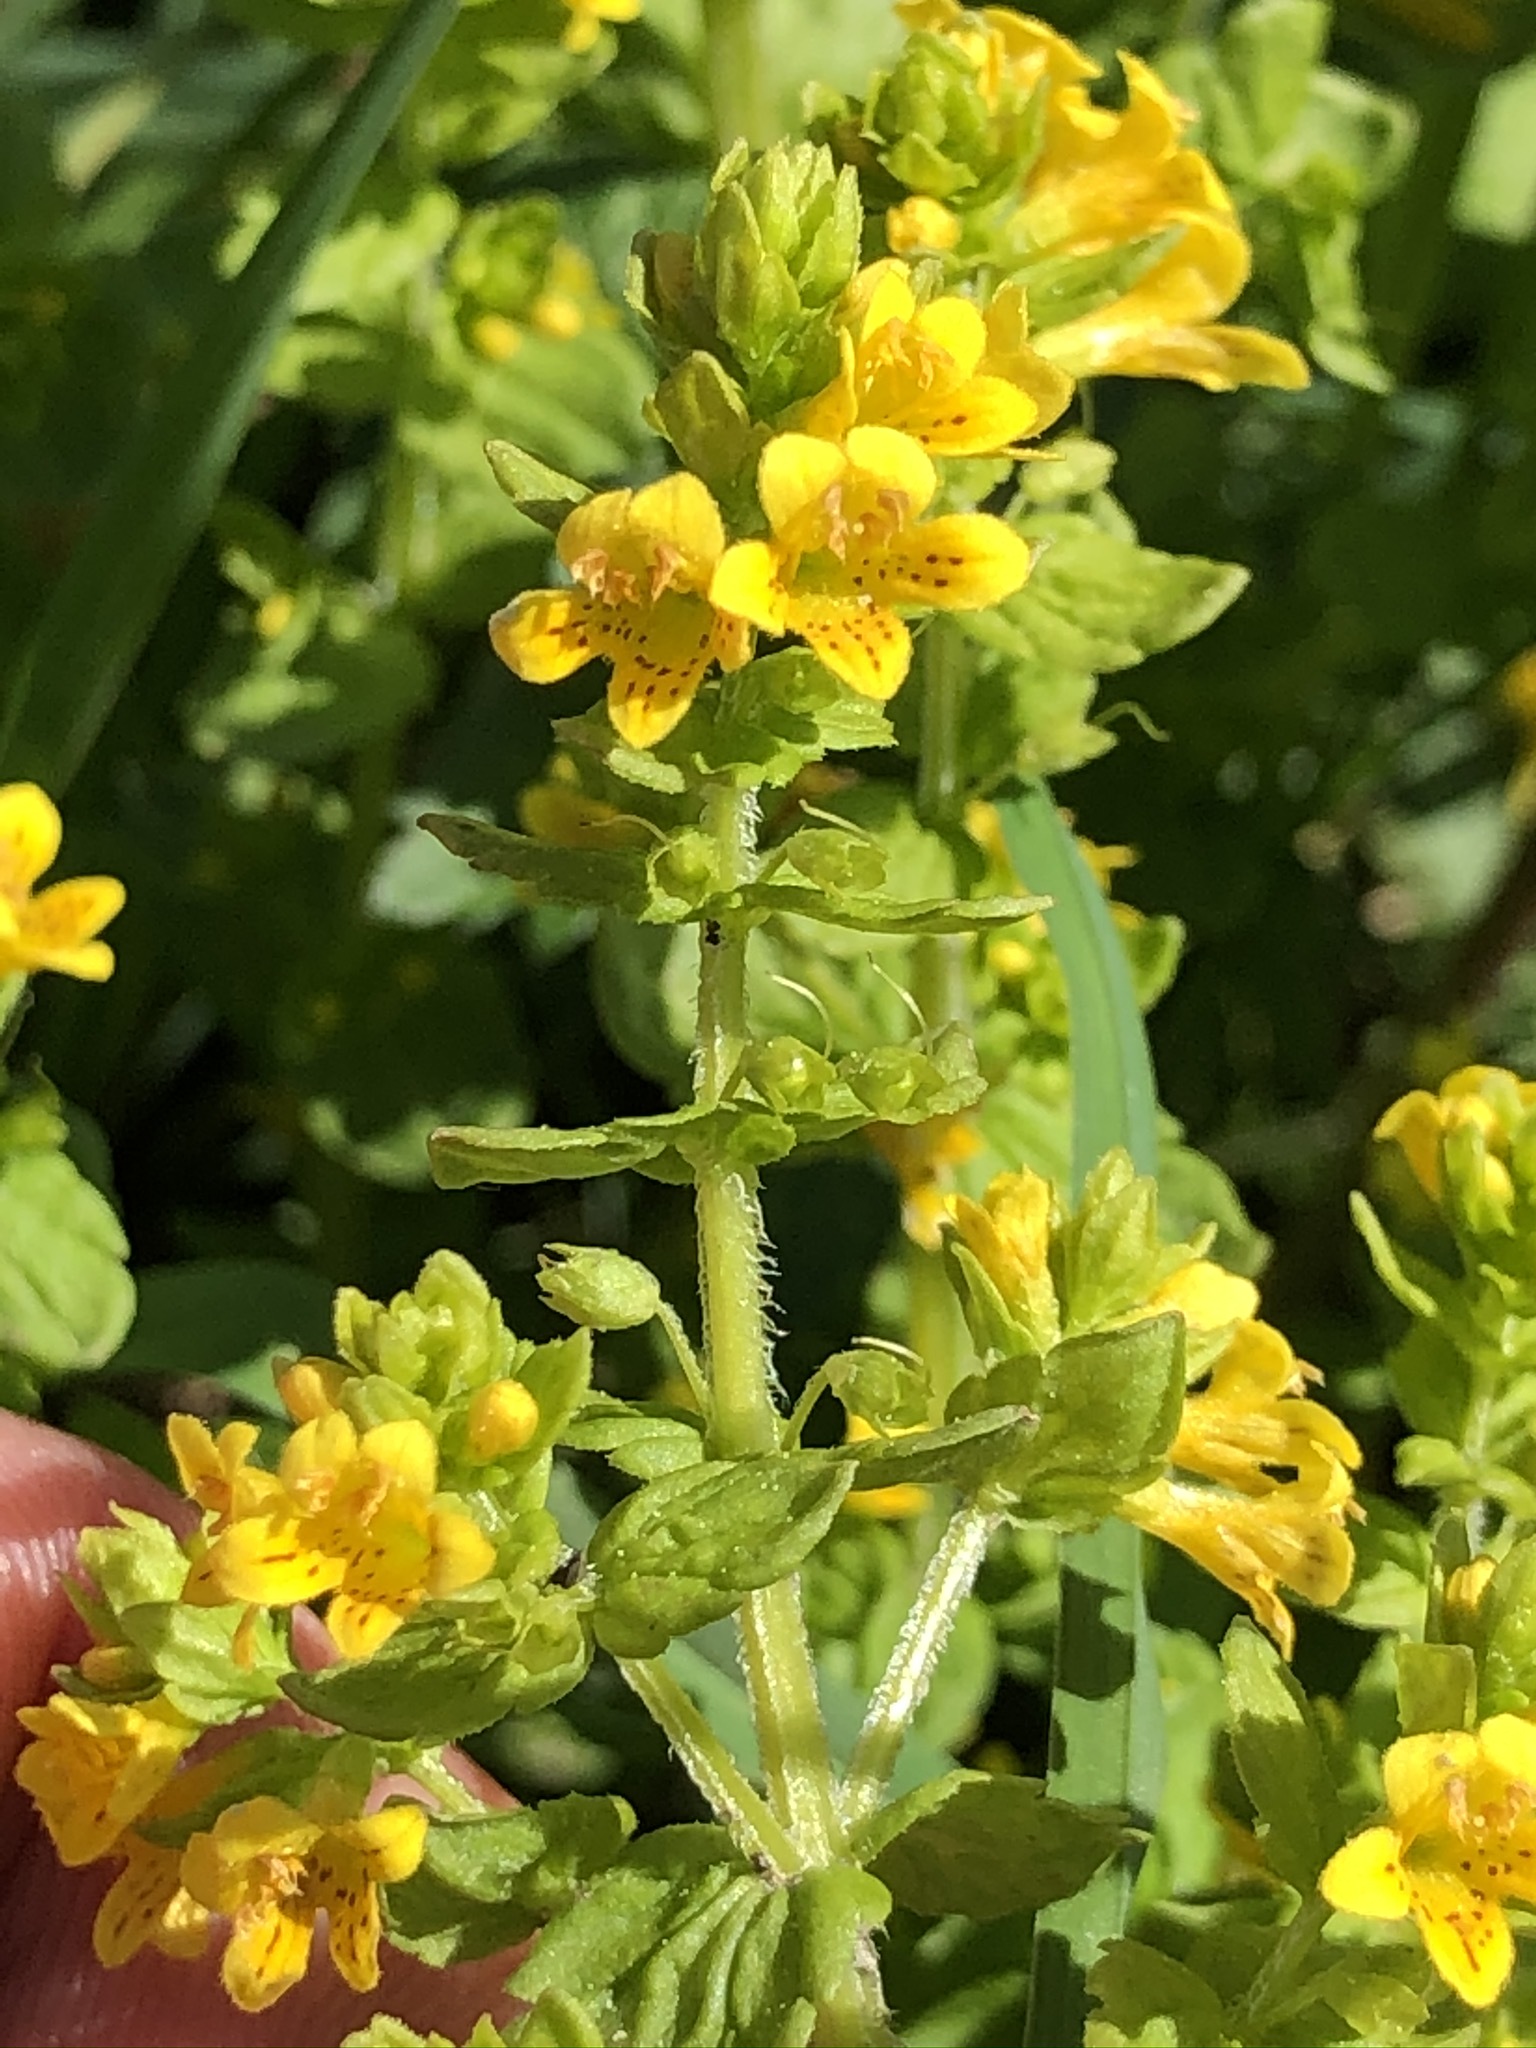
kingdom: Plantae
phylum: Tracheophyta
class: Magnoliopsida
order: Lamiales
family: Orobanchaceae
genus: Tozzia
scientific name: Tozzia alpina
